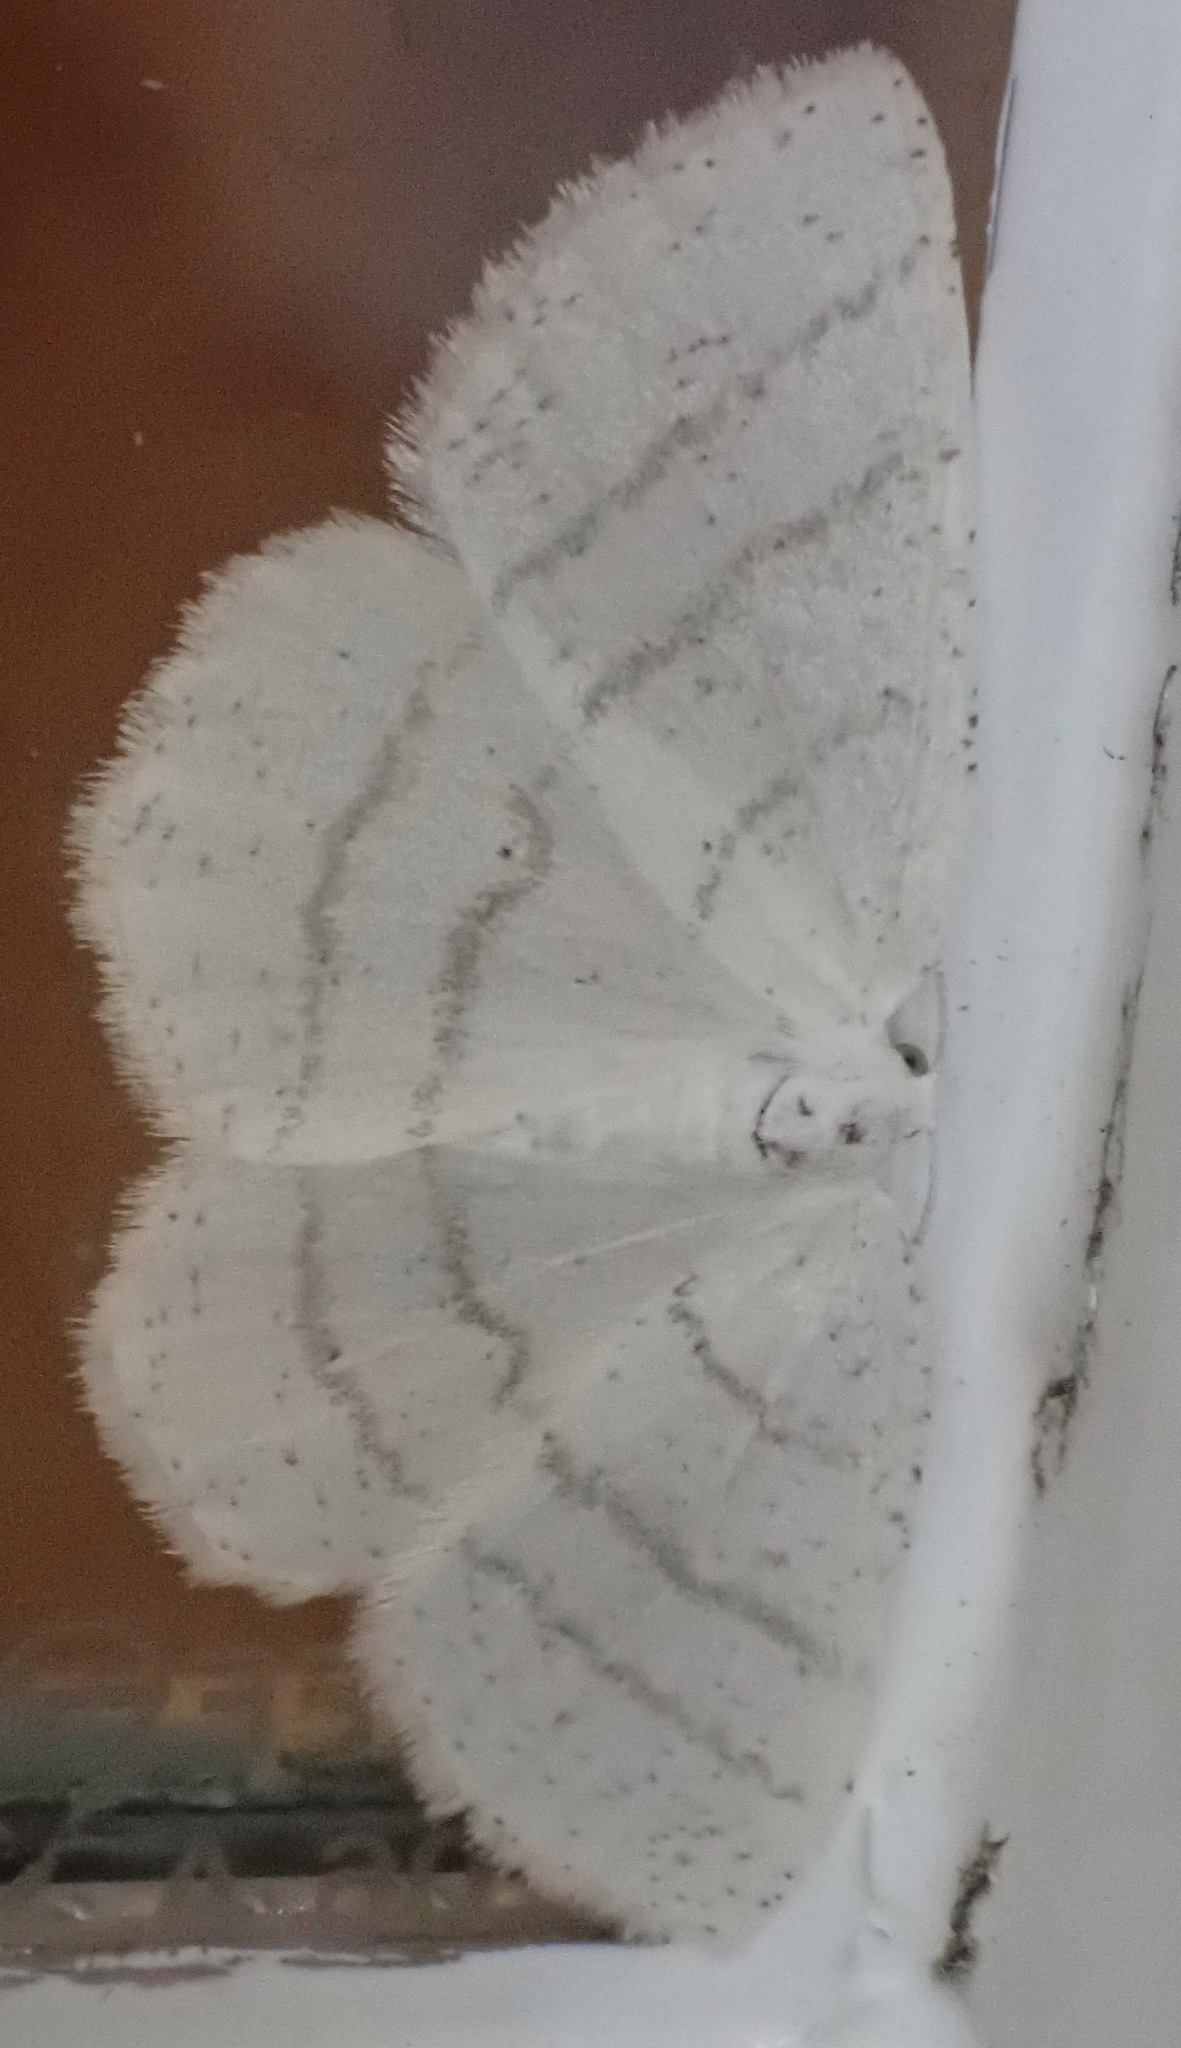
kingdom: Animalia
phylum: Arthropoda
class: Insecta
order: Lepidoptera
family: Geometridae
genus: Cabera
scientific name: Cabera pusaria
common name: Common white wave
